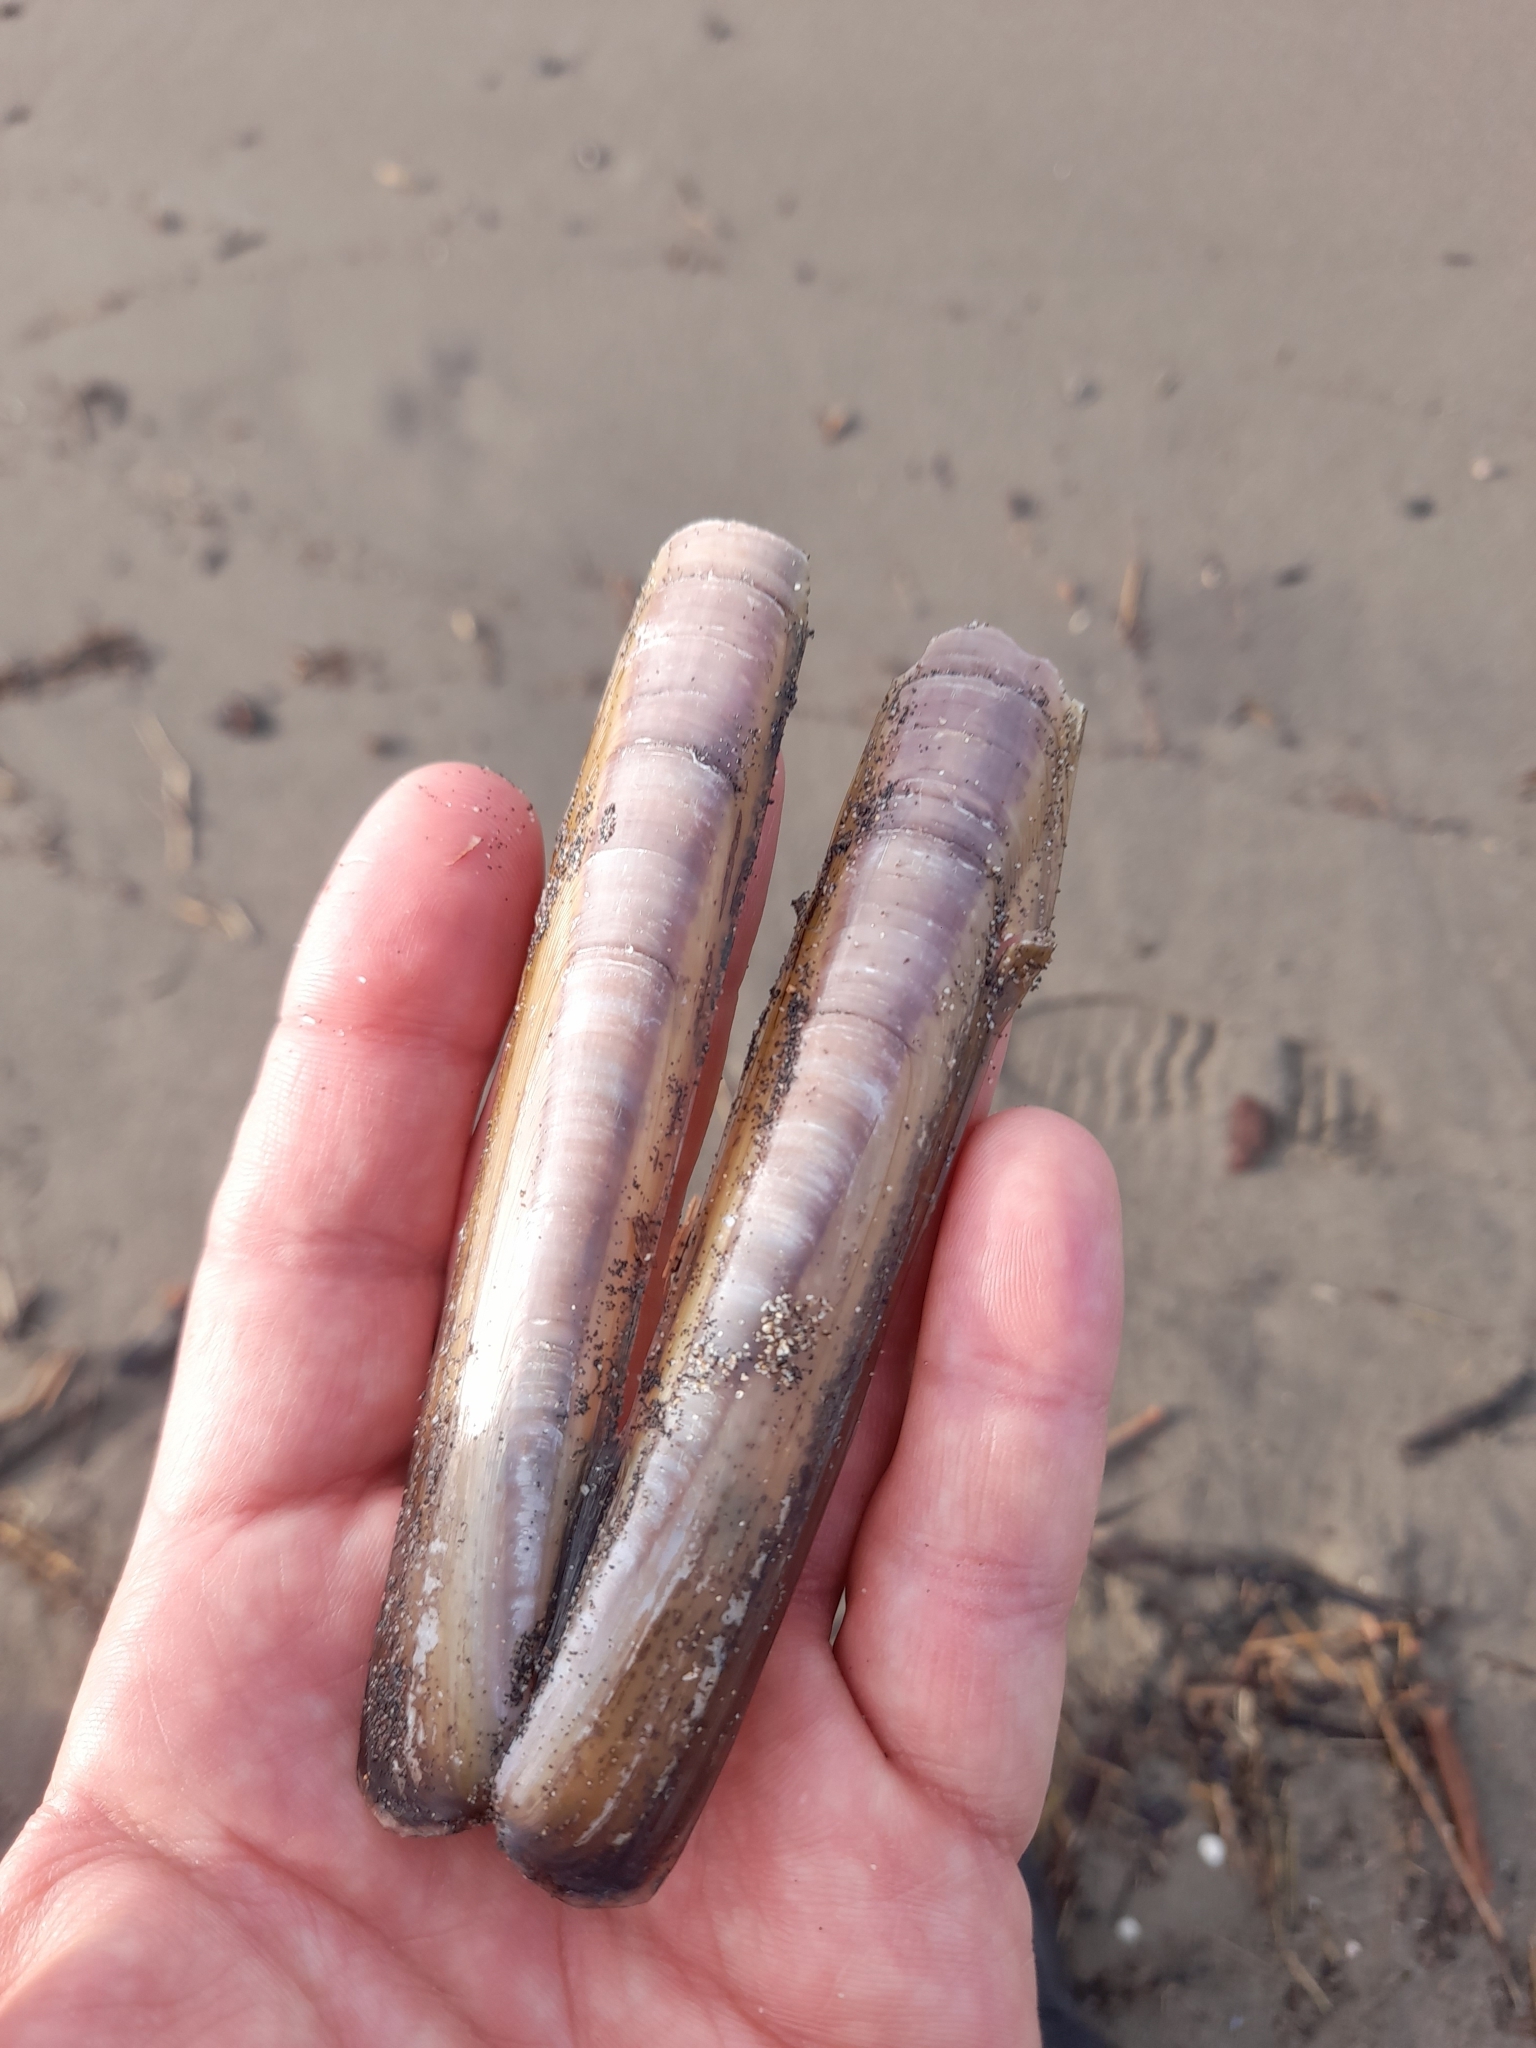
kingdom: Animalia
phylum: Mollusca
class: Bivalvia
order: Adapedonta
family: Pharidae
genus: Ensis
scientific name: Ensis minor
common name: Minor jackknife clam
